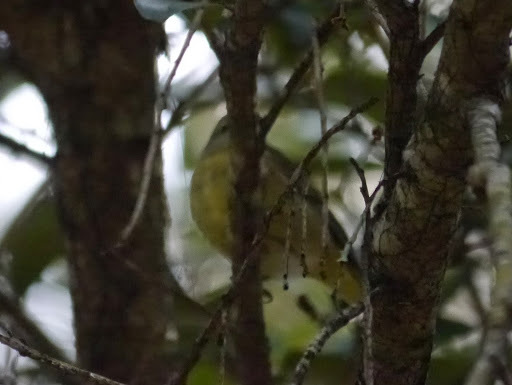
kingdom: Animalia
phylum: Chordata
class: Aves
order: Passeriformes
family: Parulidae
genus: Leiothlypis
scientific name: Leiothlypis celata
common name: Orange-crowned warbler
